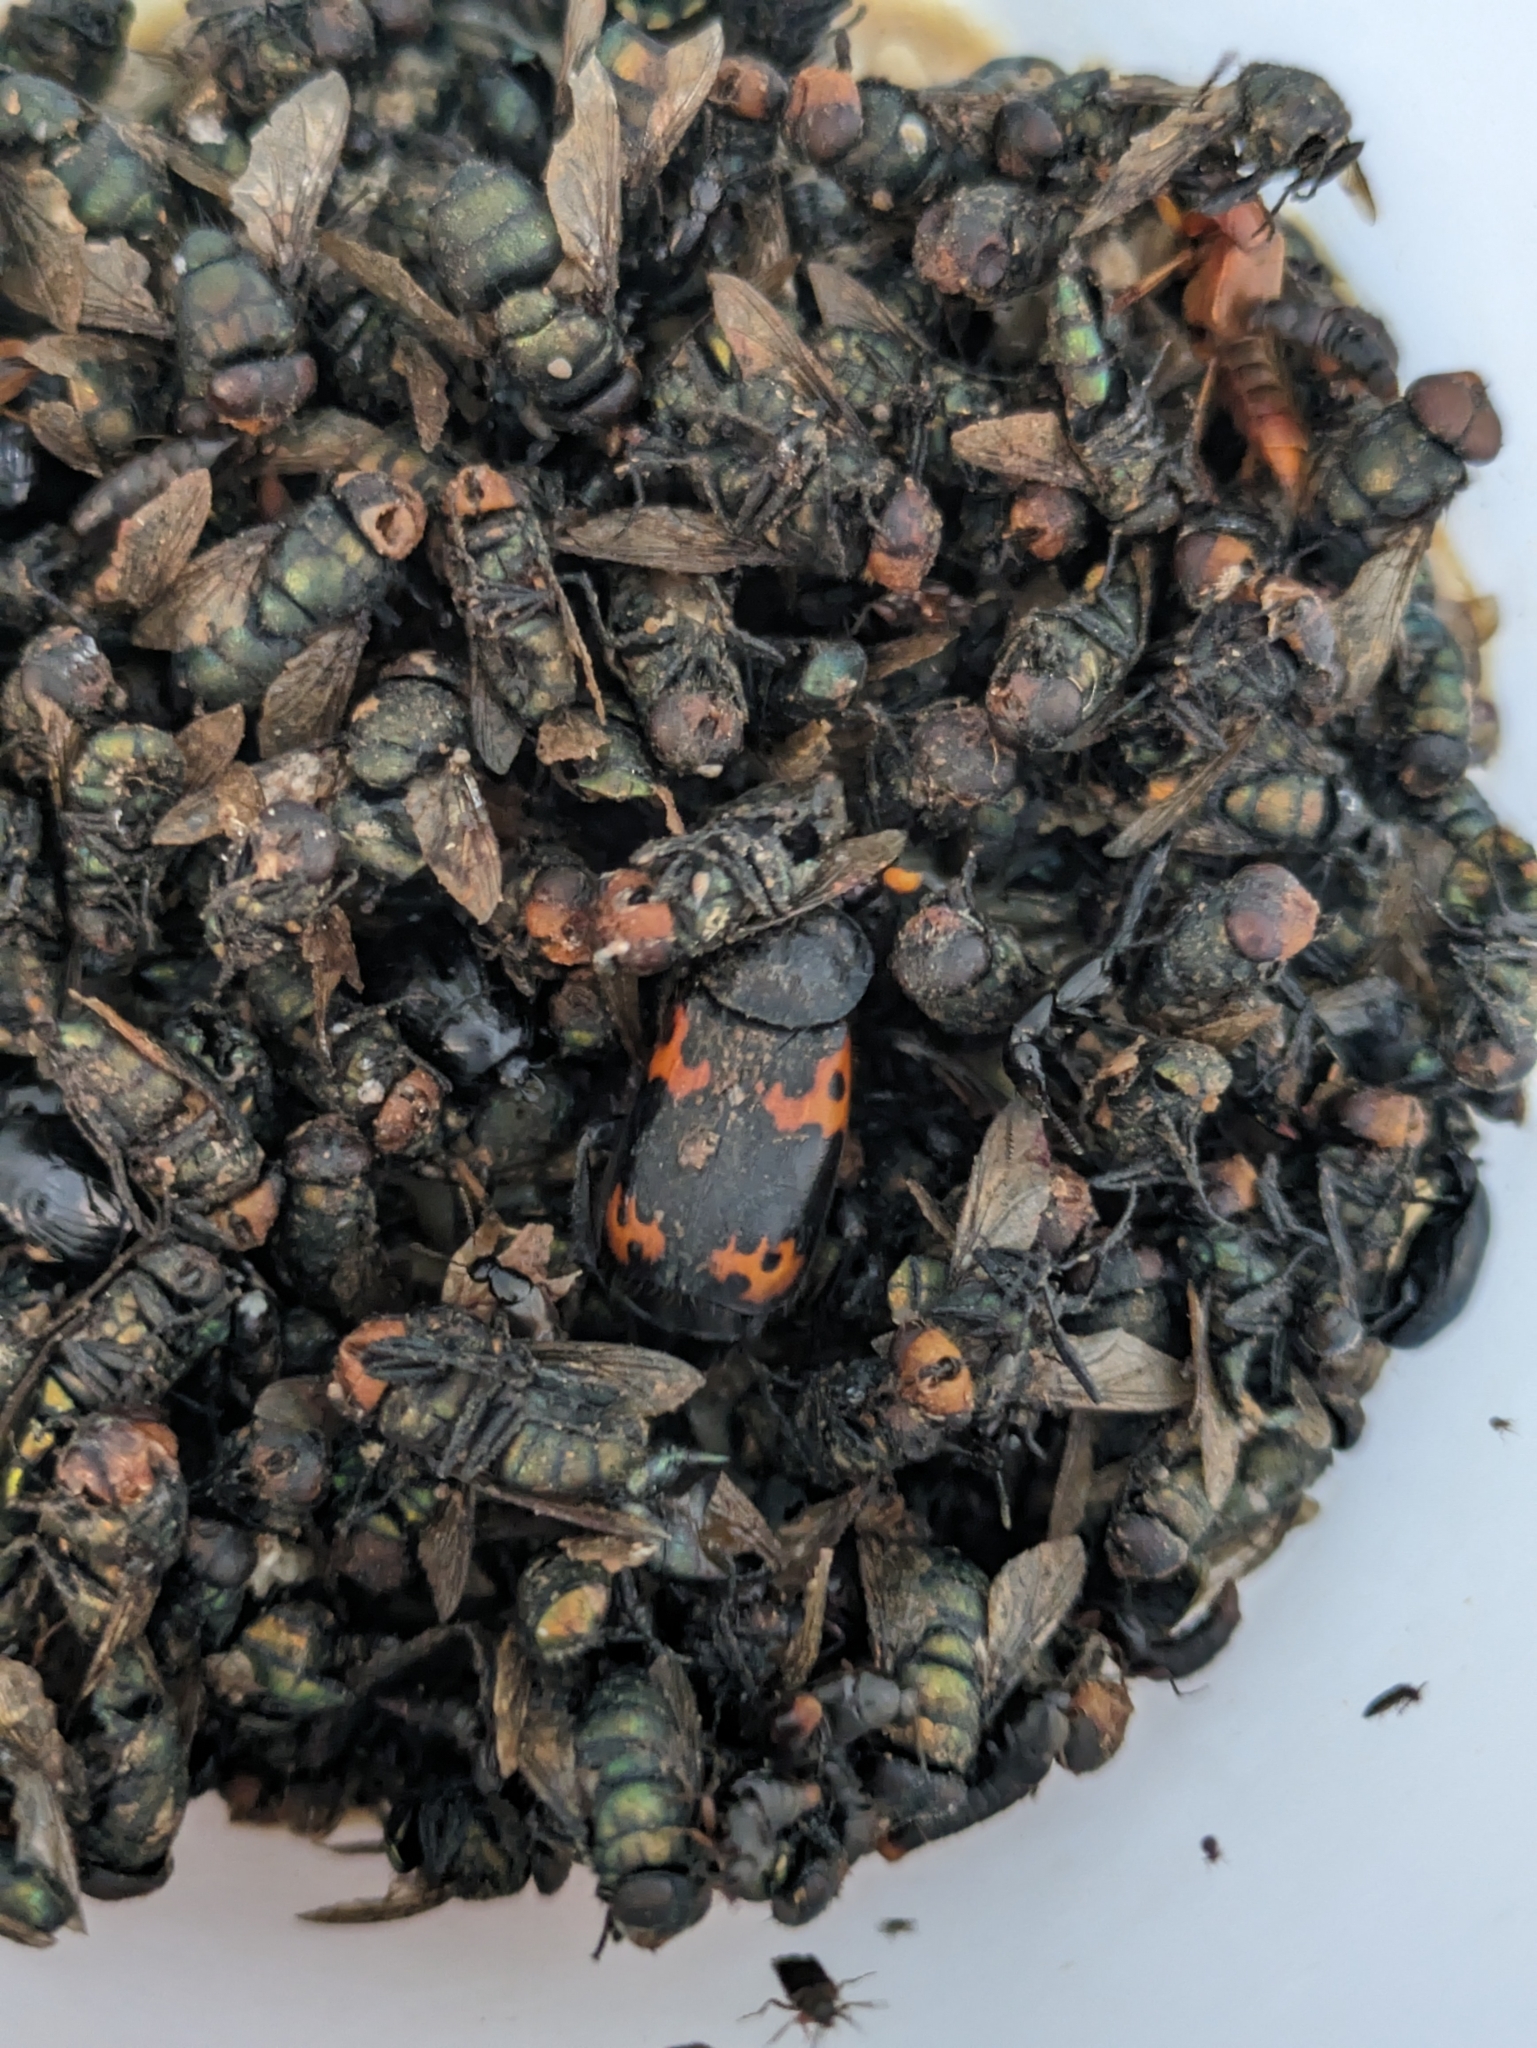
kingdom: Animalia
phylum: Arthropoda
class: Insecta
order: Coleoptera
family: Staphylinidae
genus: Nicrophorus
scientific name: Nicrophorus nepalensis
